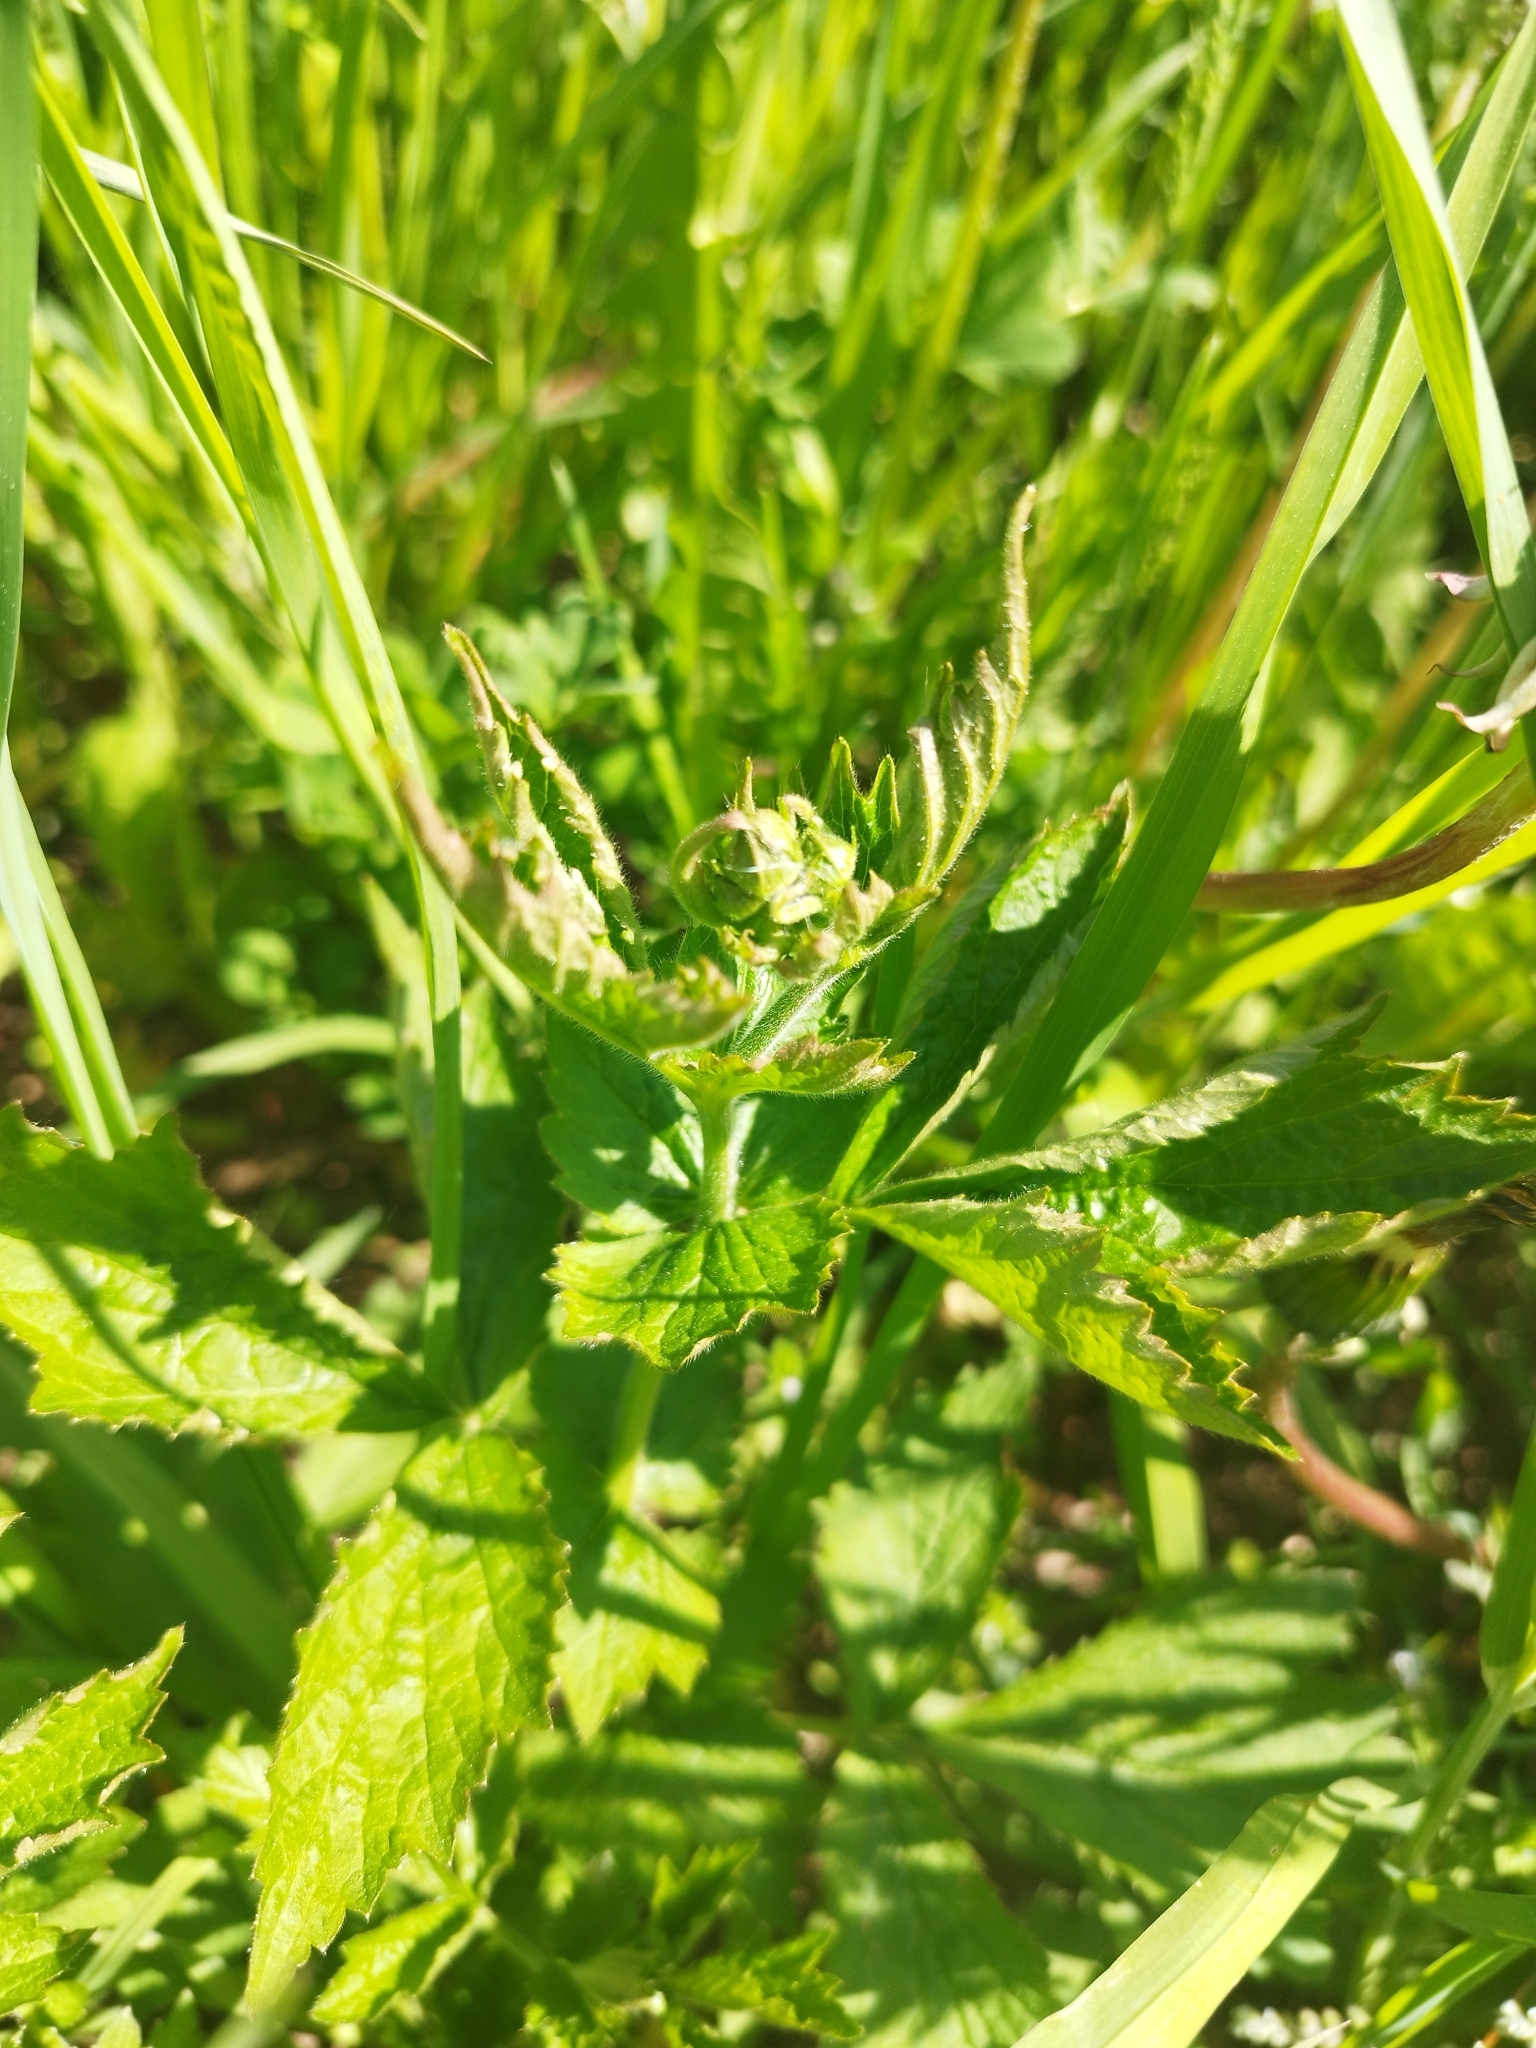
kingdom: Plantae
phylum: Tracheophyta
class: Magnoliopsida
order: Rosales
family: Rosaceae
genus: Geum
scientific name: Geum urbanum
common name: Wood avens
